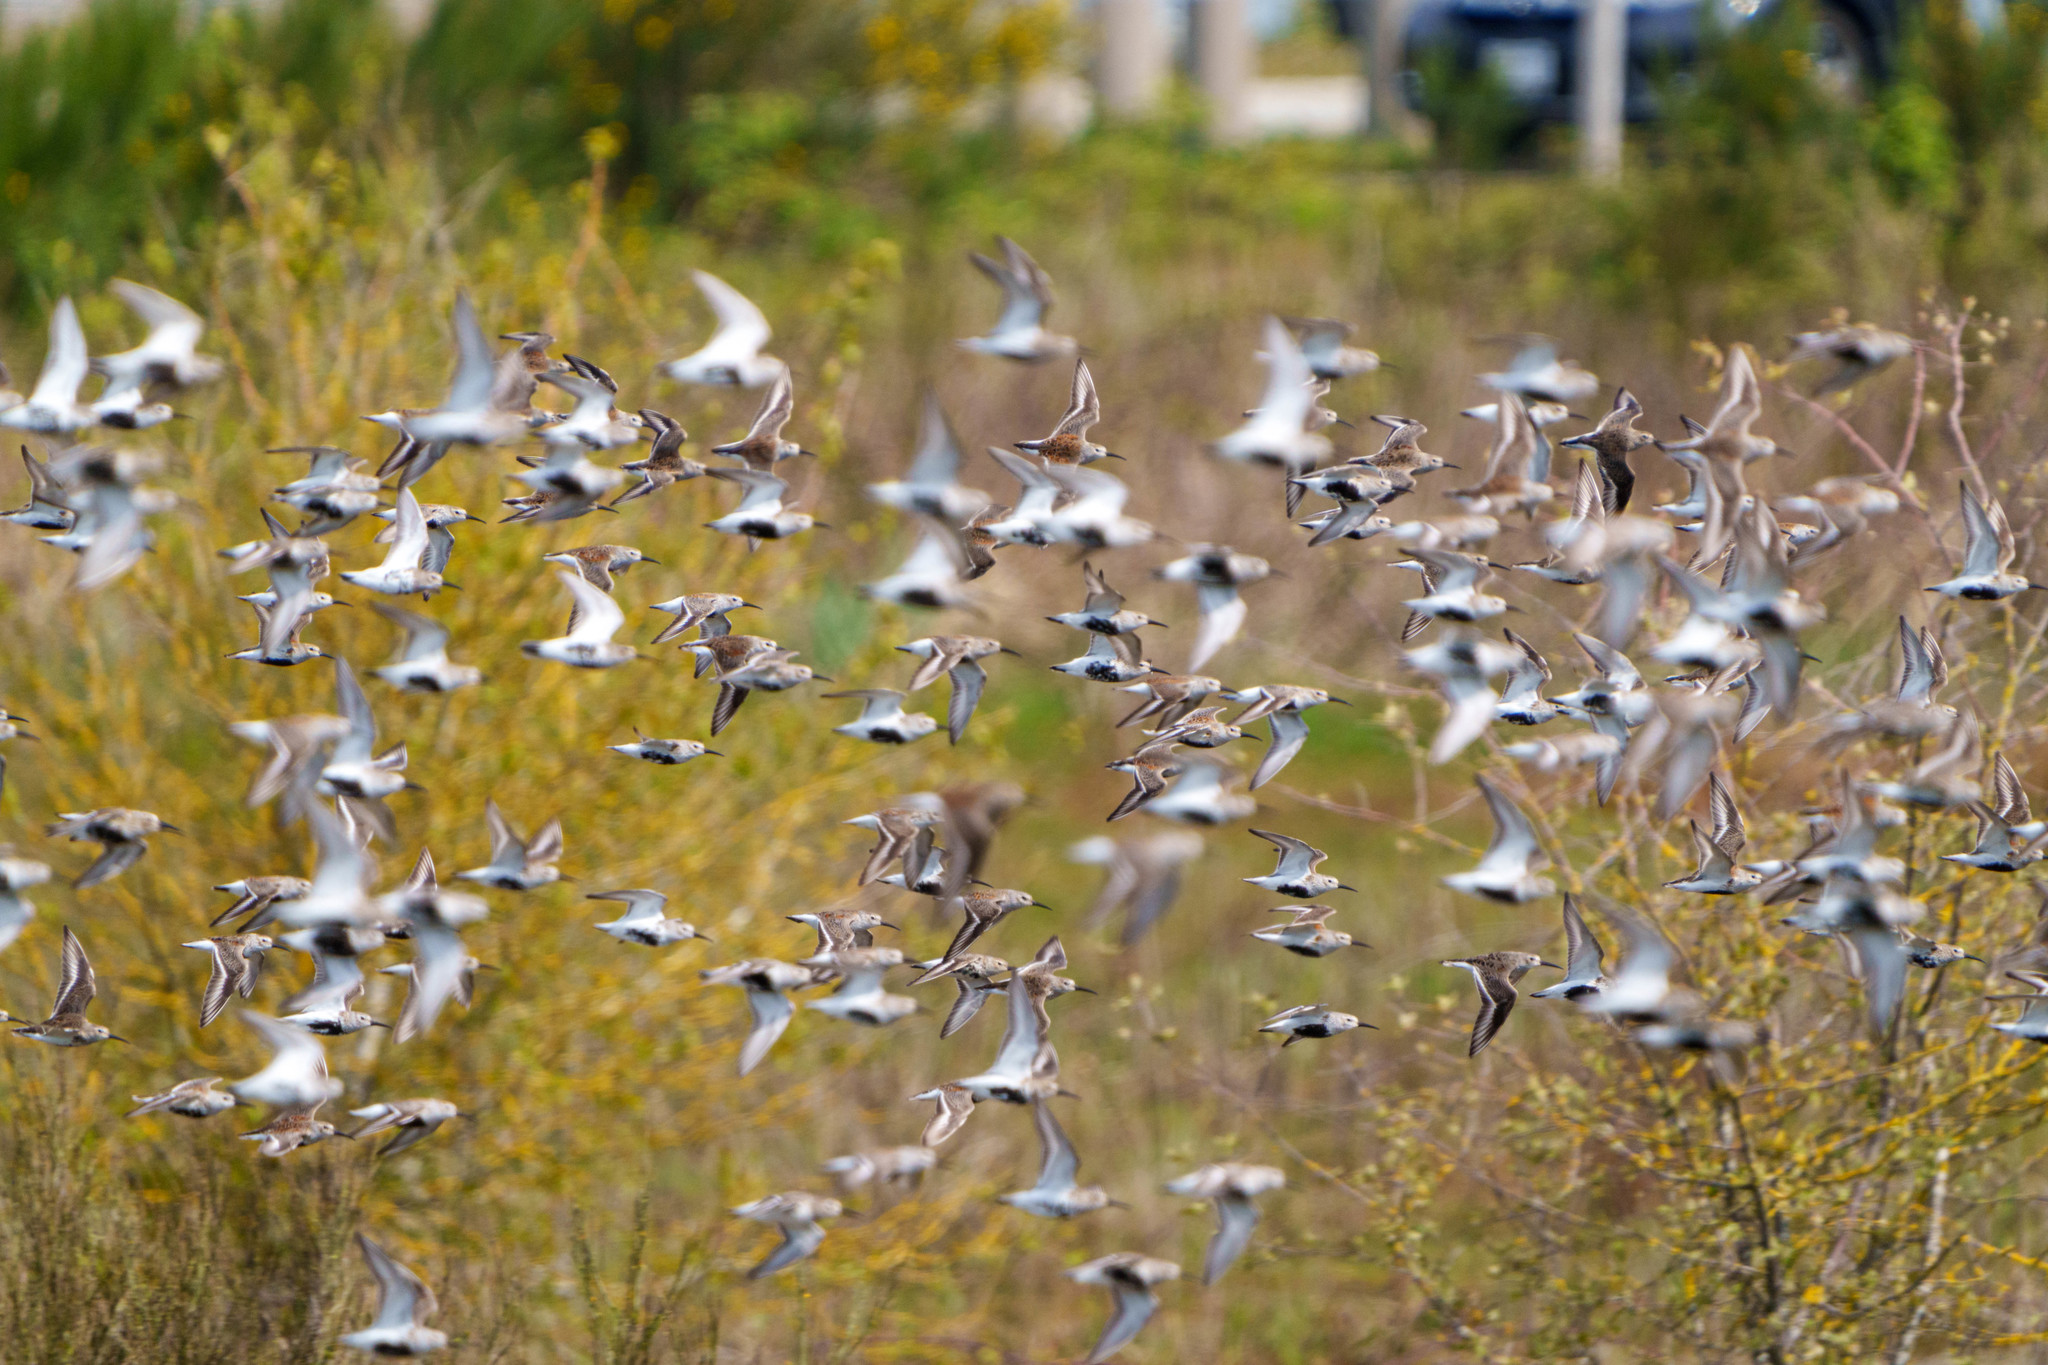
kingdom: Animalia
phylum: Chordata
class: Aves
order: Charadriiformes
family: Scolopacidae
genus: Calidris
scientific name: Calidris alpina
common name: Dunlin
